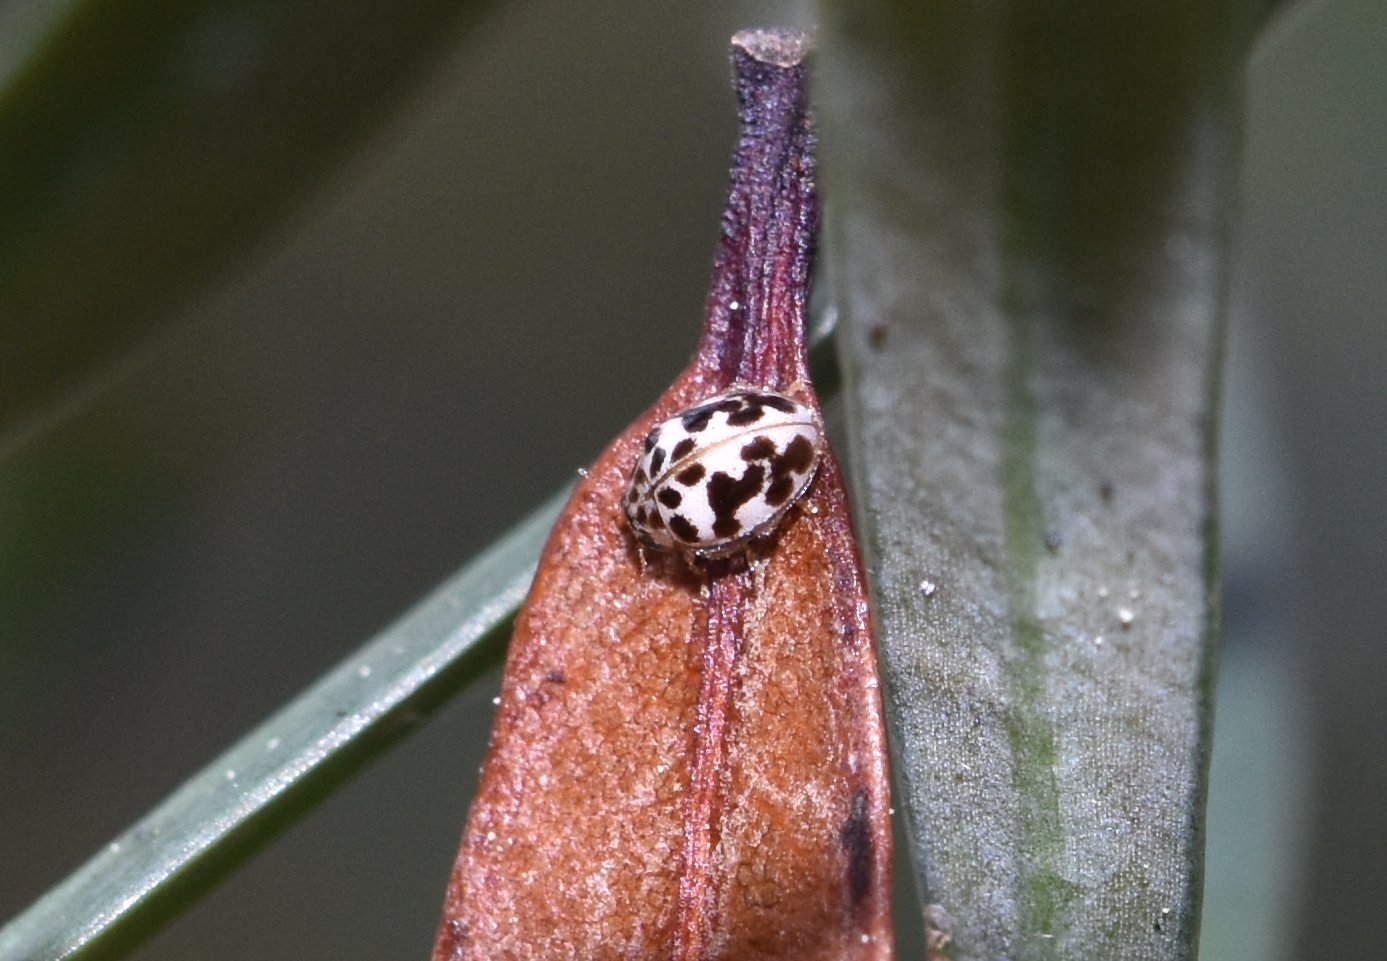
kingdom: Animalia
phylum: Arthropoda
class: Insecta
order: Coleoptera
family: Coccinellidae
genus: Psyllobora
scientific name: Psyllobora parvinotata
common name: Small-spotted psyllobora
